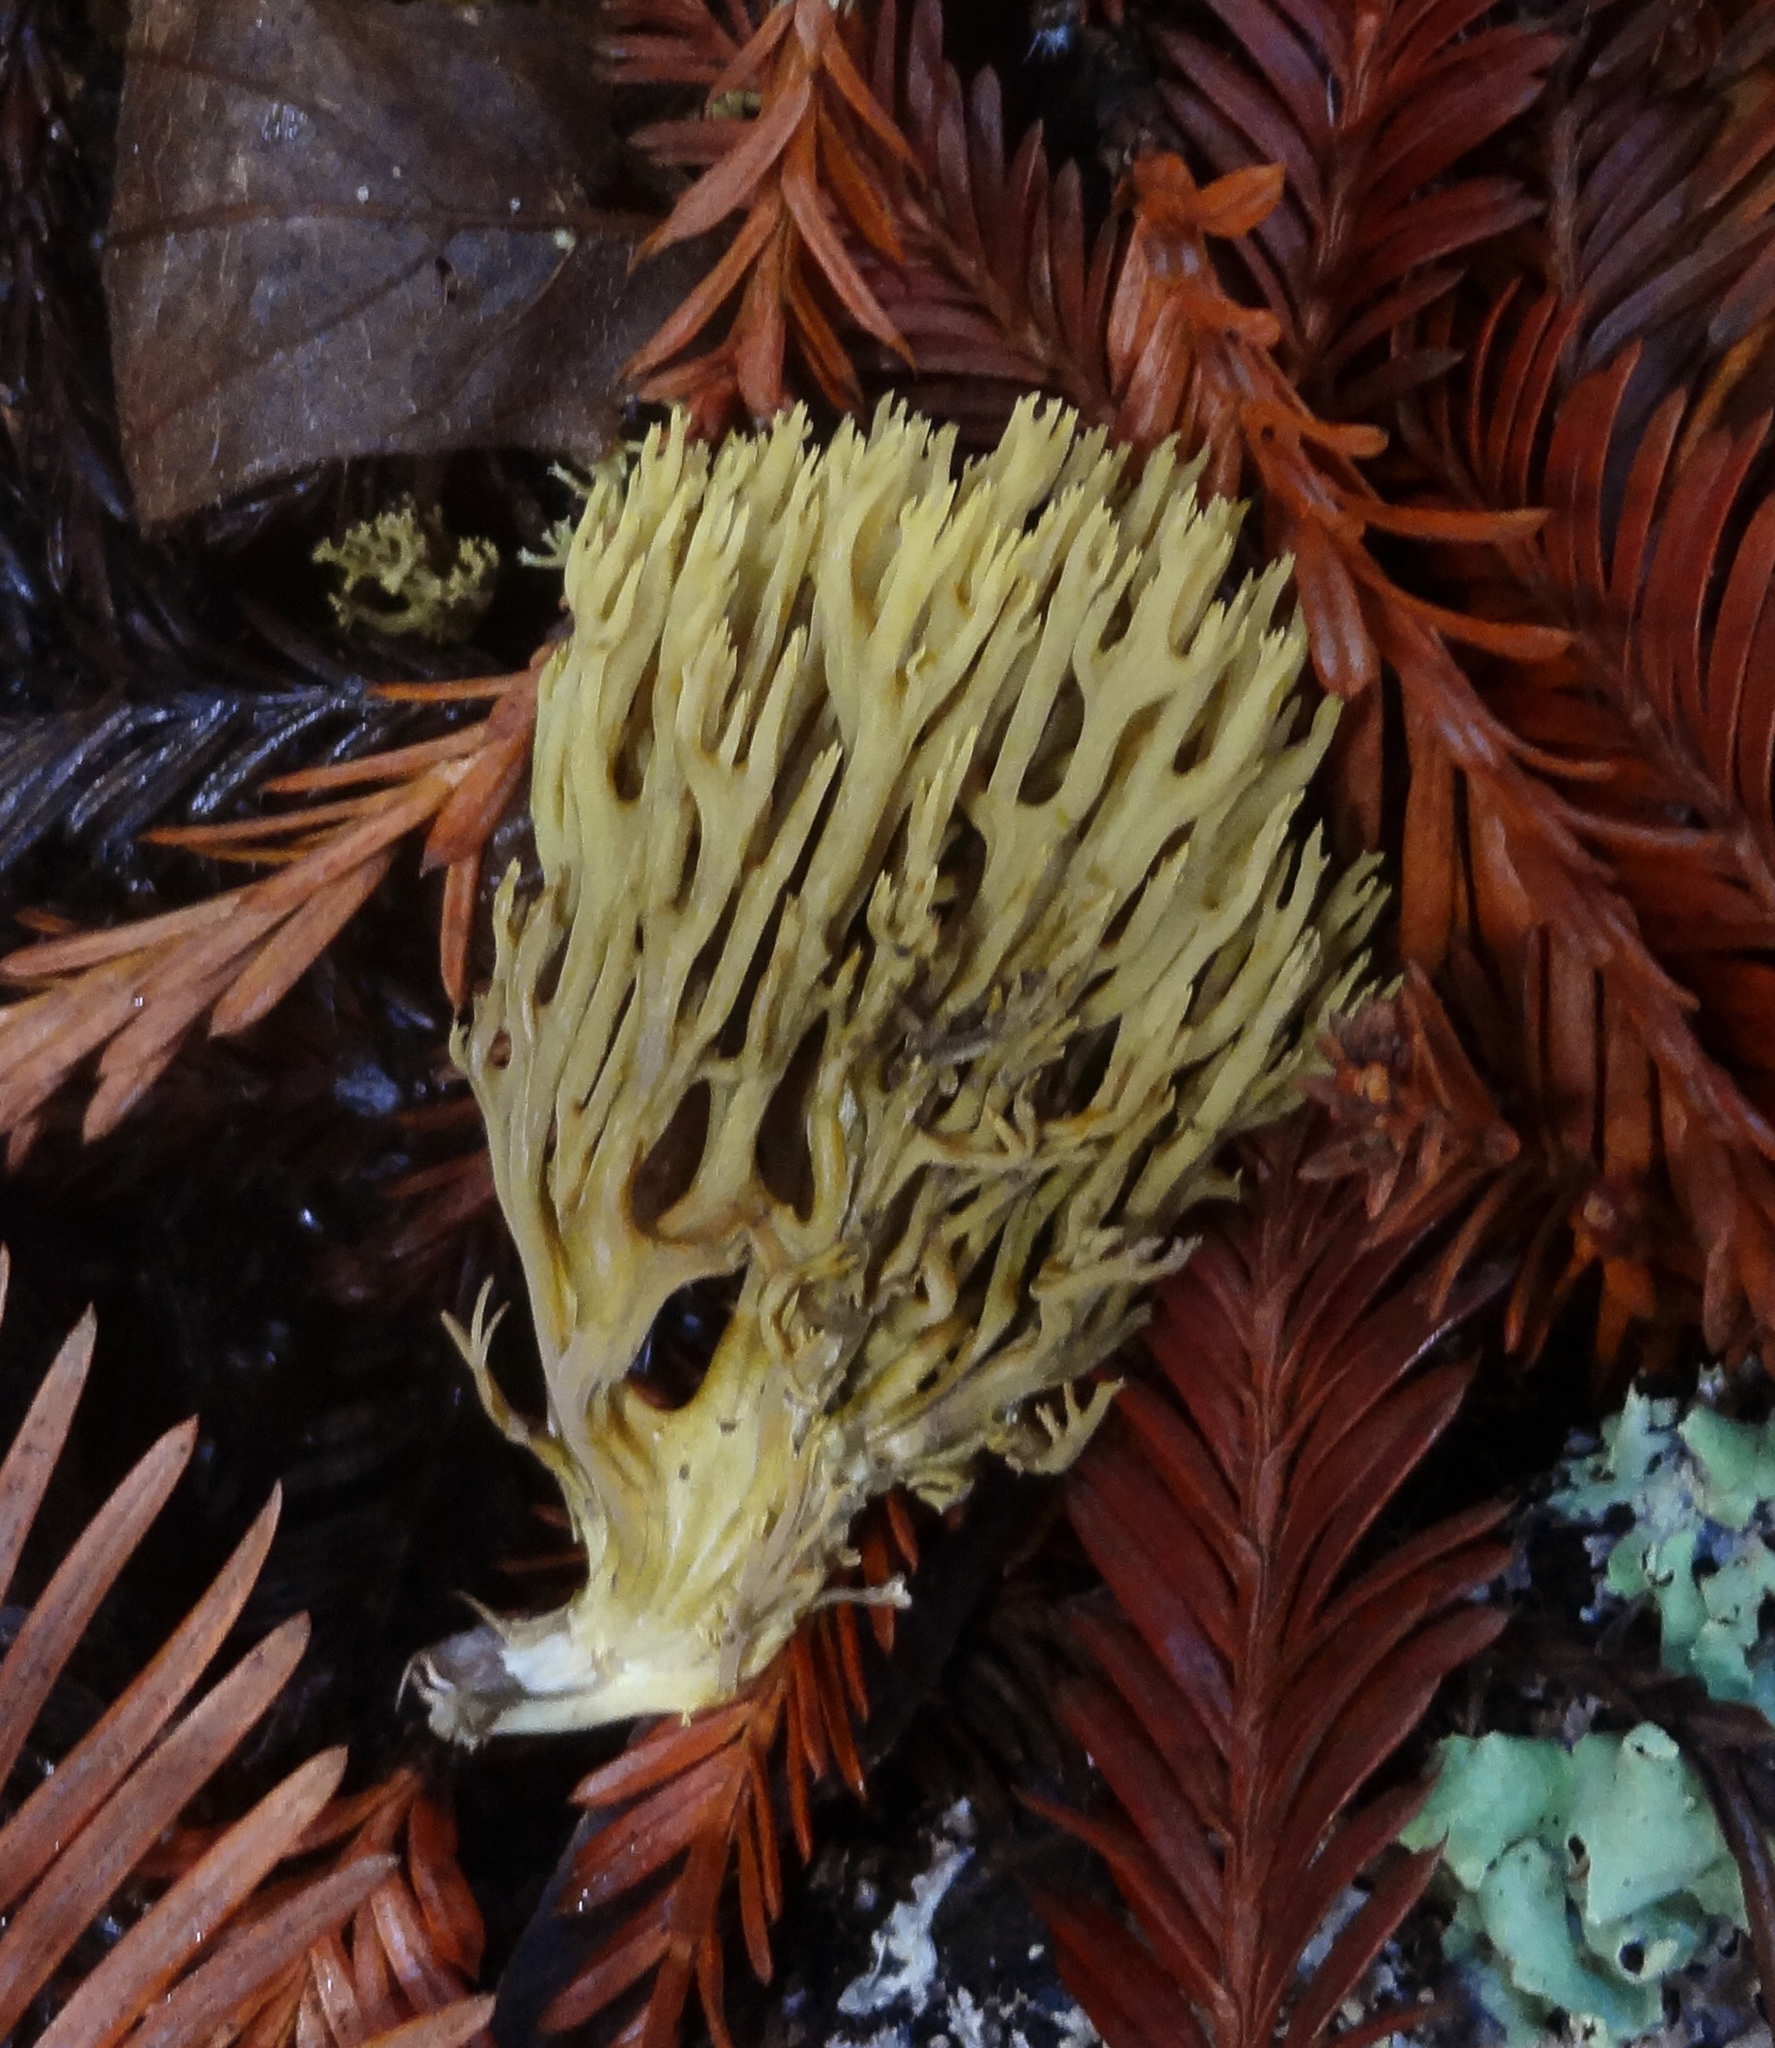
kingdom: Fungi
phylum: Basidiomycota
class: Agaricomycetes
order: Gomphales
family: Gomphaceae
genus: Phaeoclavulina
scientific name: Phaeoclavulina myceliosa
